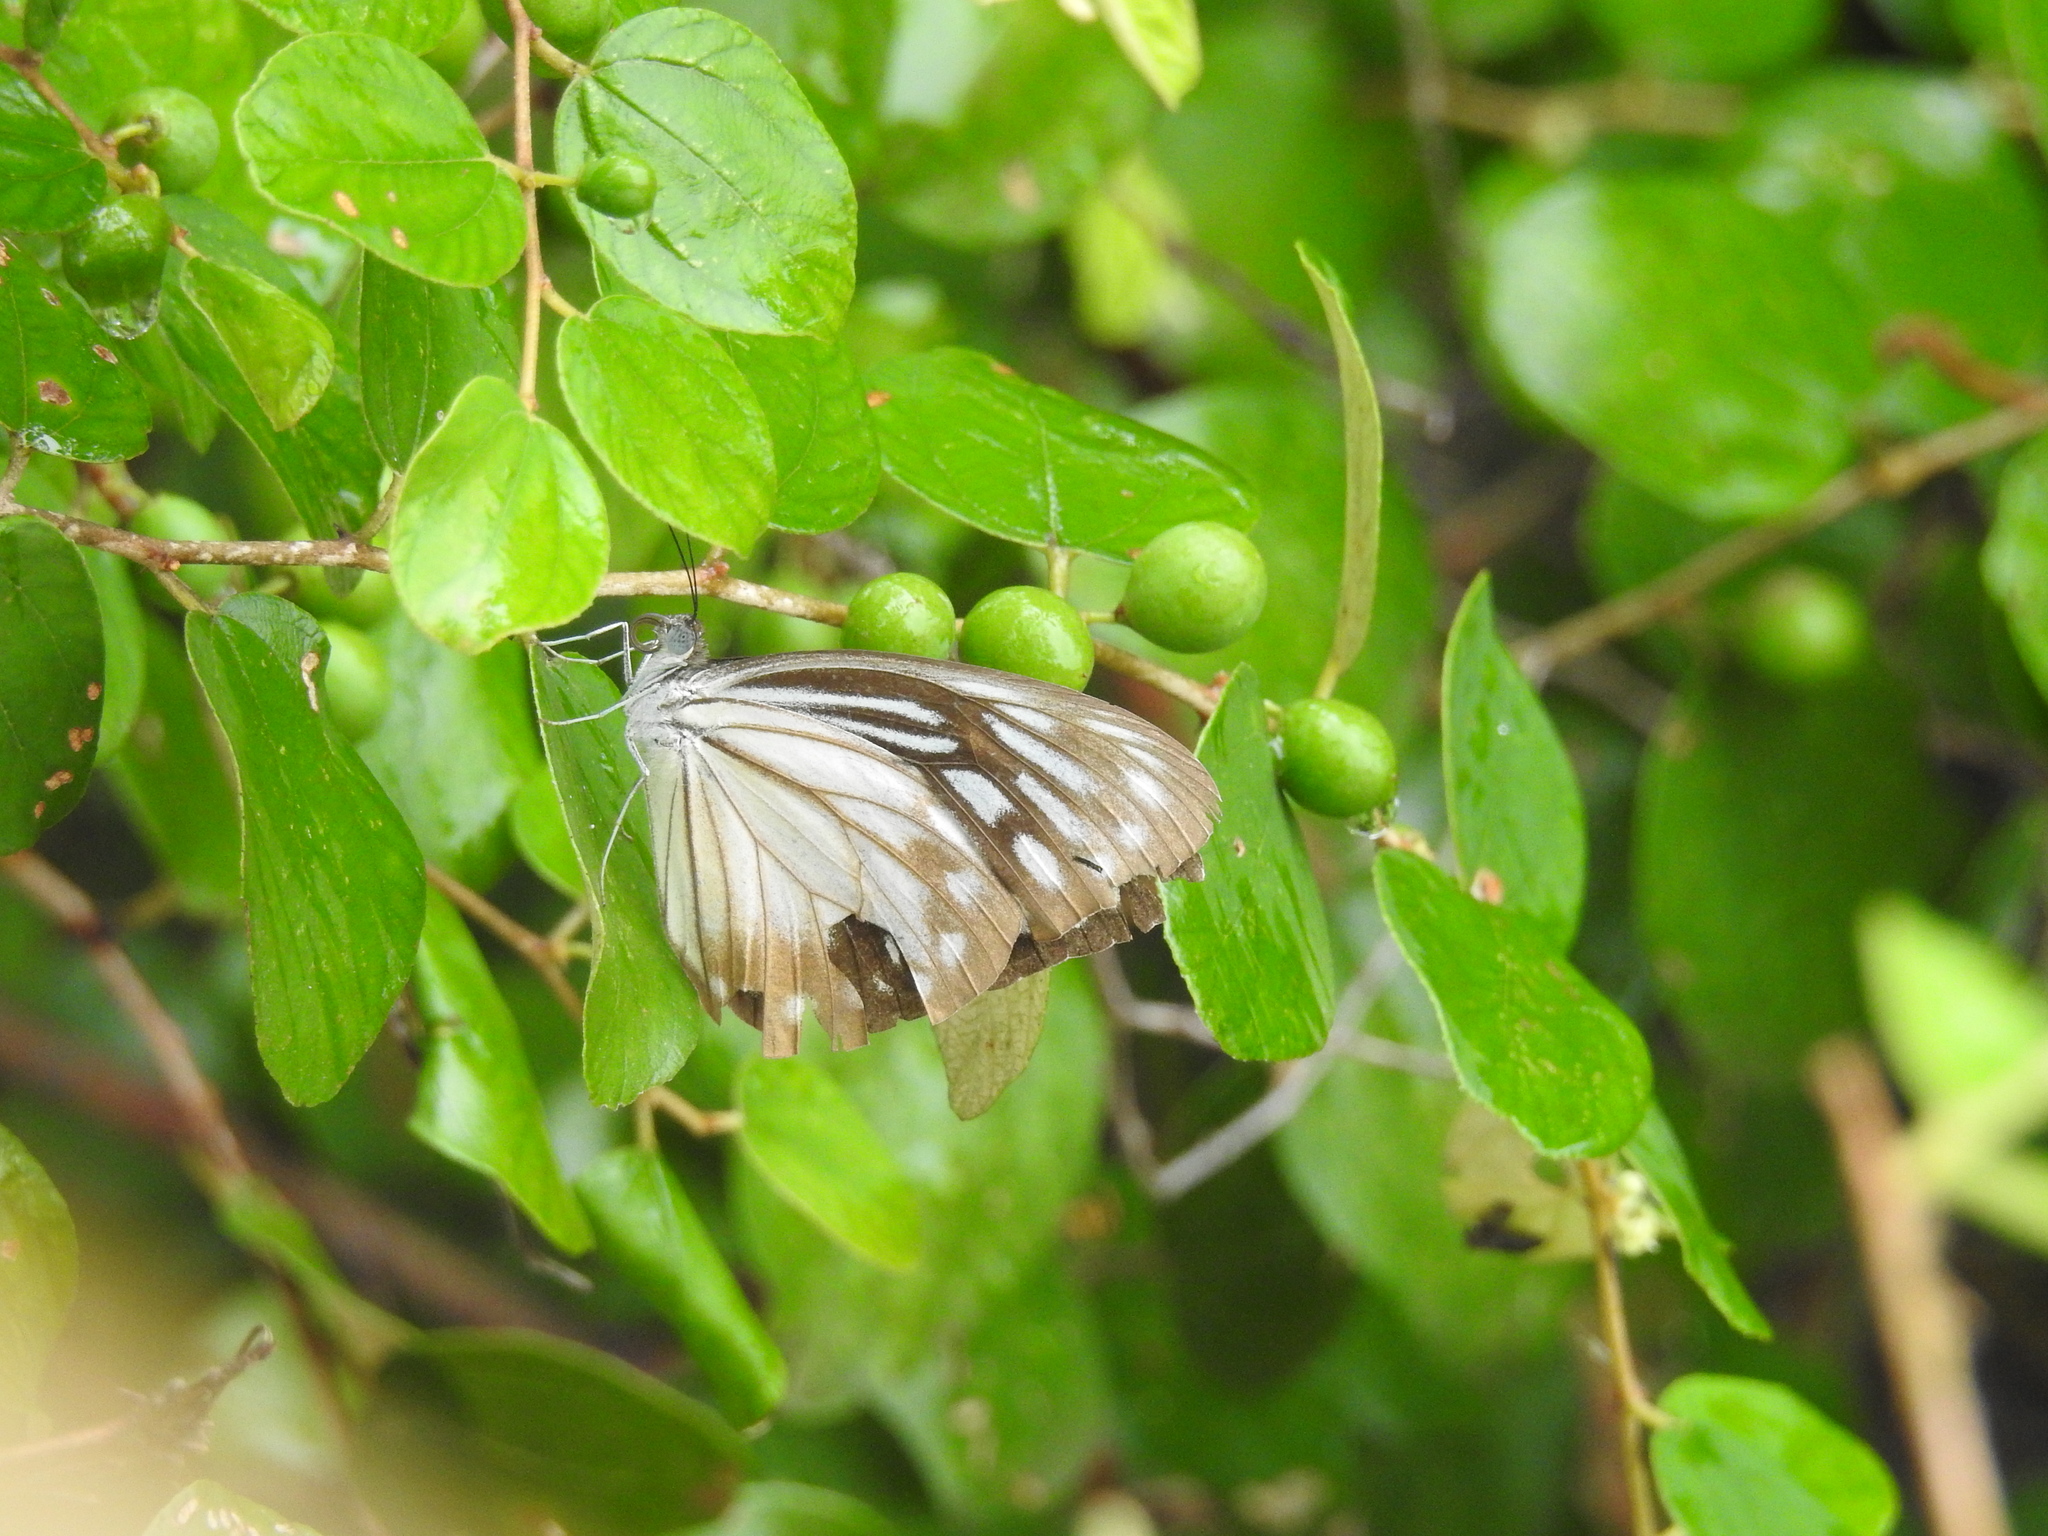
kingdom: Animalia
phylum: Arthropoda
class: Insecta
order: Lepidoptera
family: Pieridae
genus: Pareronia
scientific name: Pareronia hippia
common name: Indian wanderer
